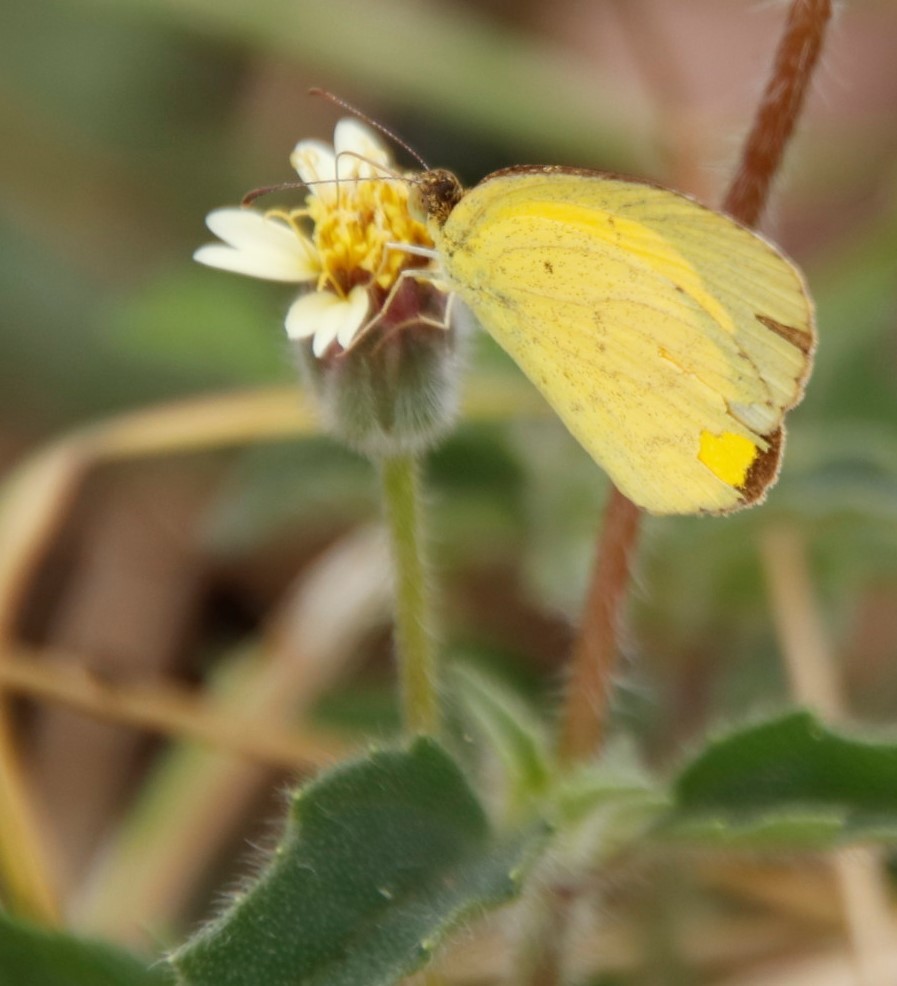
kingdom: Animalia
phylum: Arthropoda
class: Insecta
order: Lepidoptera
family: Pieridae
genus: Eurema
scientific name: Eurema brigitta
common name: Small grass yellow
